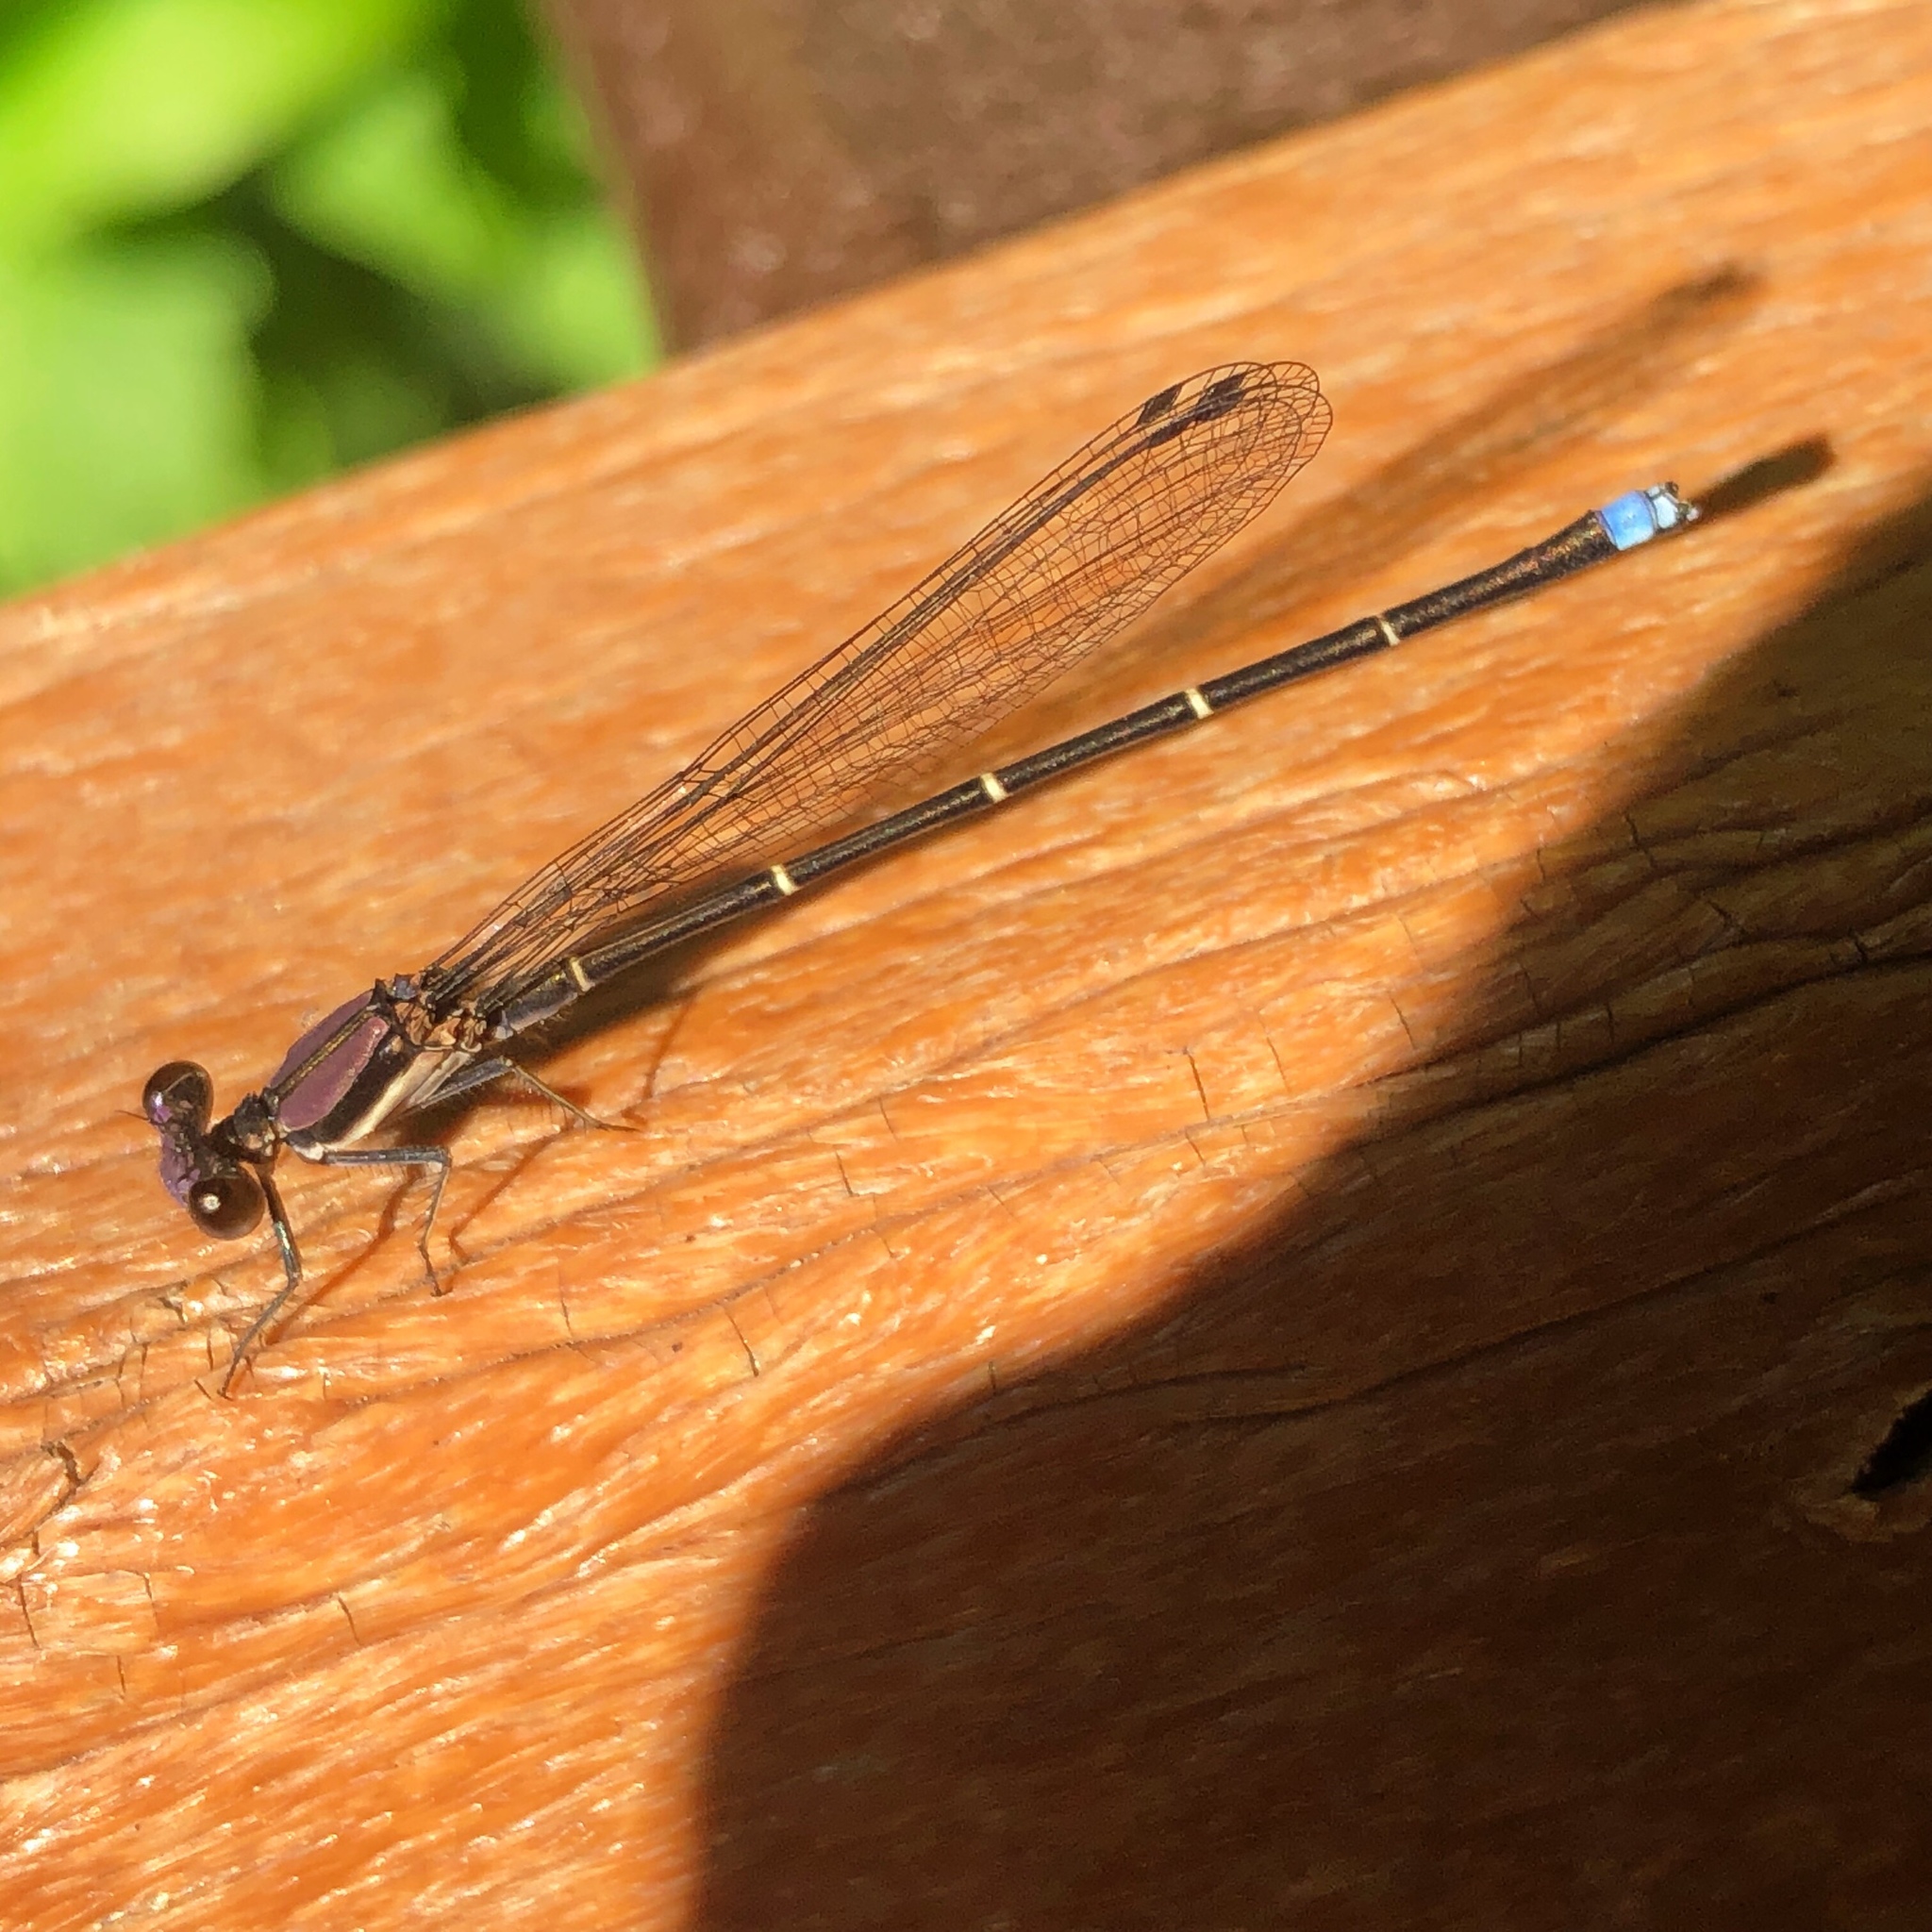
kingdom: Animalia
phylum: Arthropoda
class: Insecta
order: Odonata
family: Coenagrionidae
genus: Argia
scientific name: Argia tibialis
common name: Blue-tipped dancer
